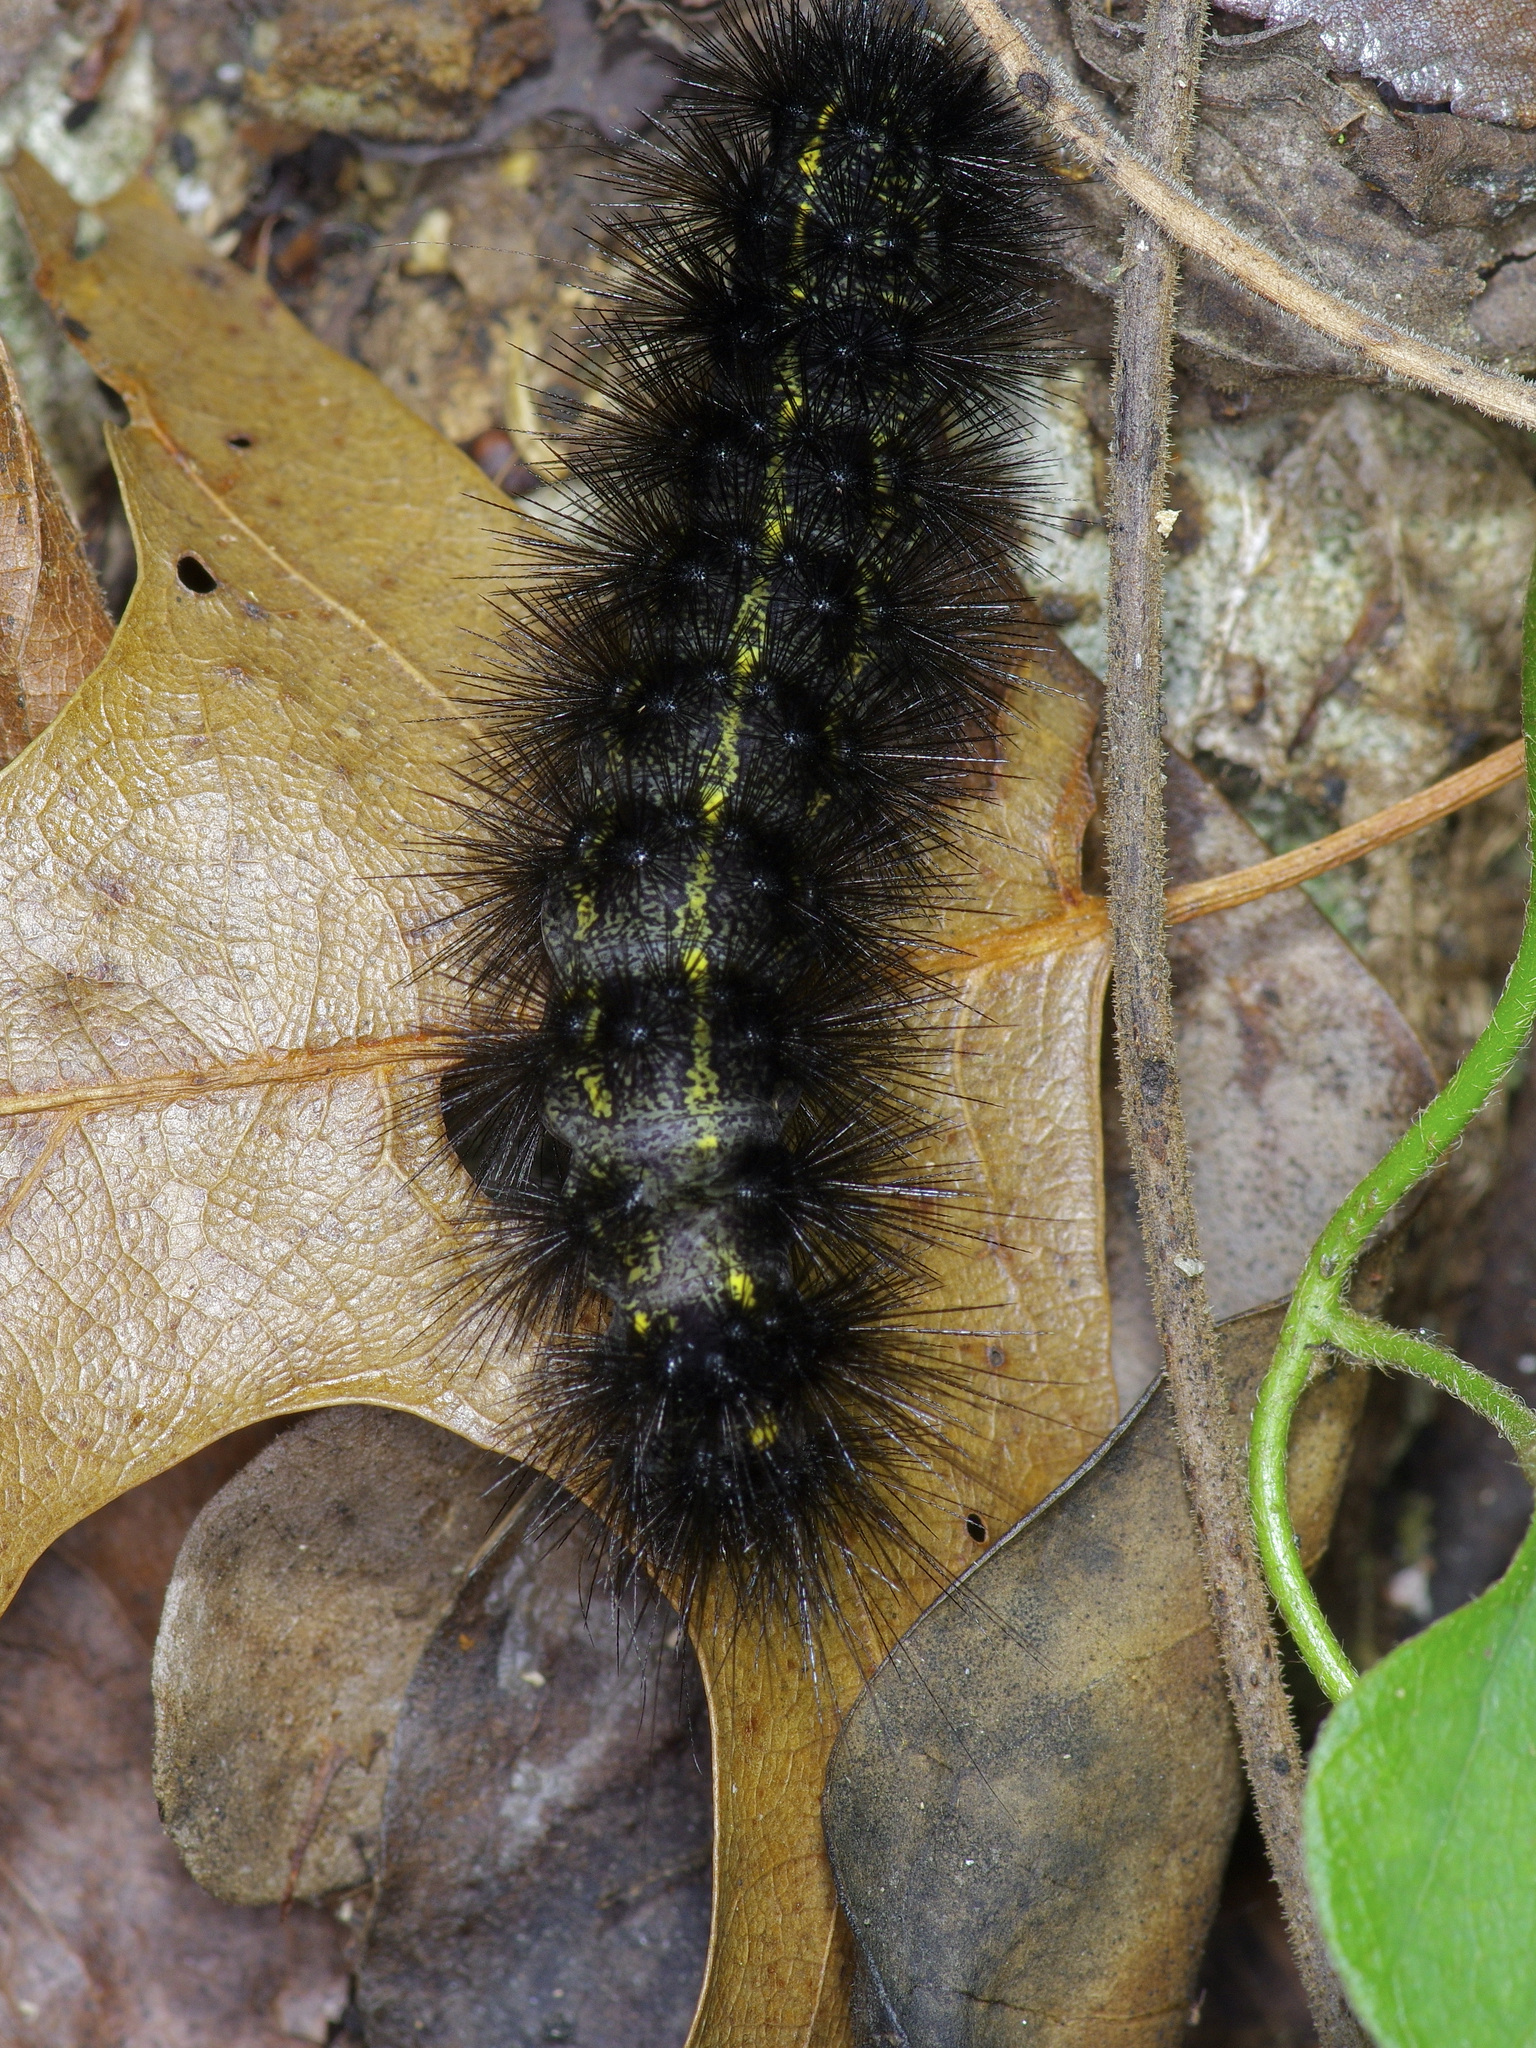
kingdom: Animalia
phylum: Arthropoda
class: Insecta
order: Lepidoptera
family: Erebidae
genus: Spilosoma
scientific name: Spilosoma dubia
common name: Dubious tiger moth
